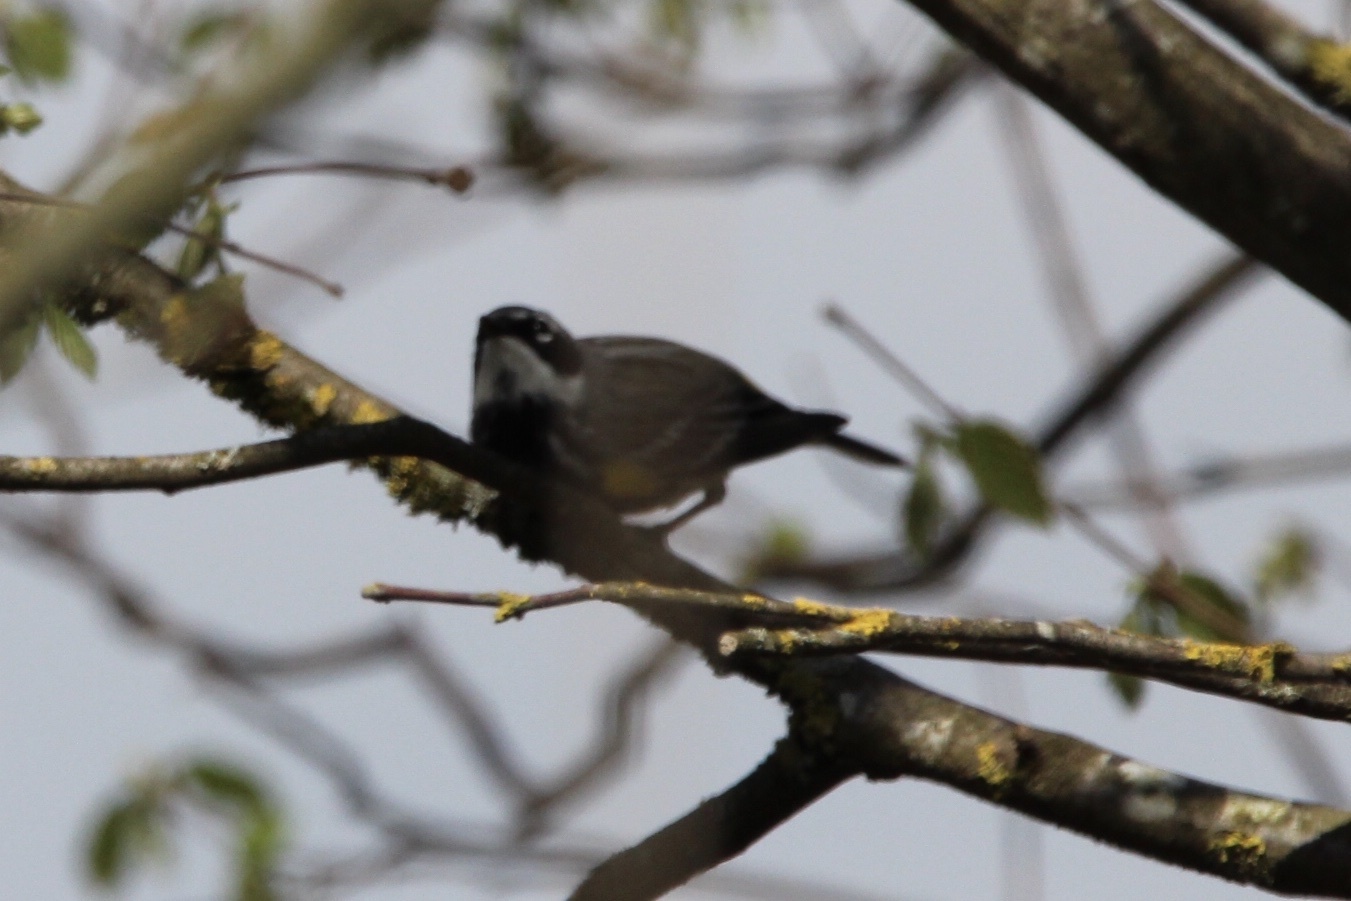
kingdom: Animalia
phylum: Chordata
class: Aves
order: Passeriformes
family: Parulidae
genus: Setophaga
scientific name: Setophaga coronata
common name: Myrtle warbler
